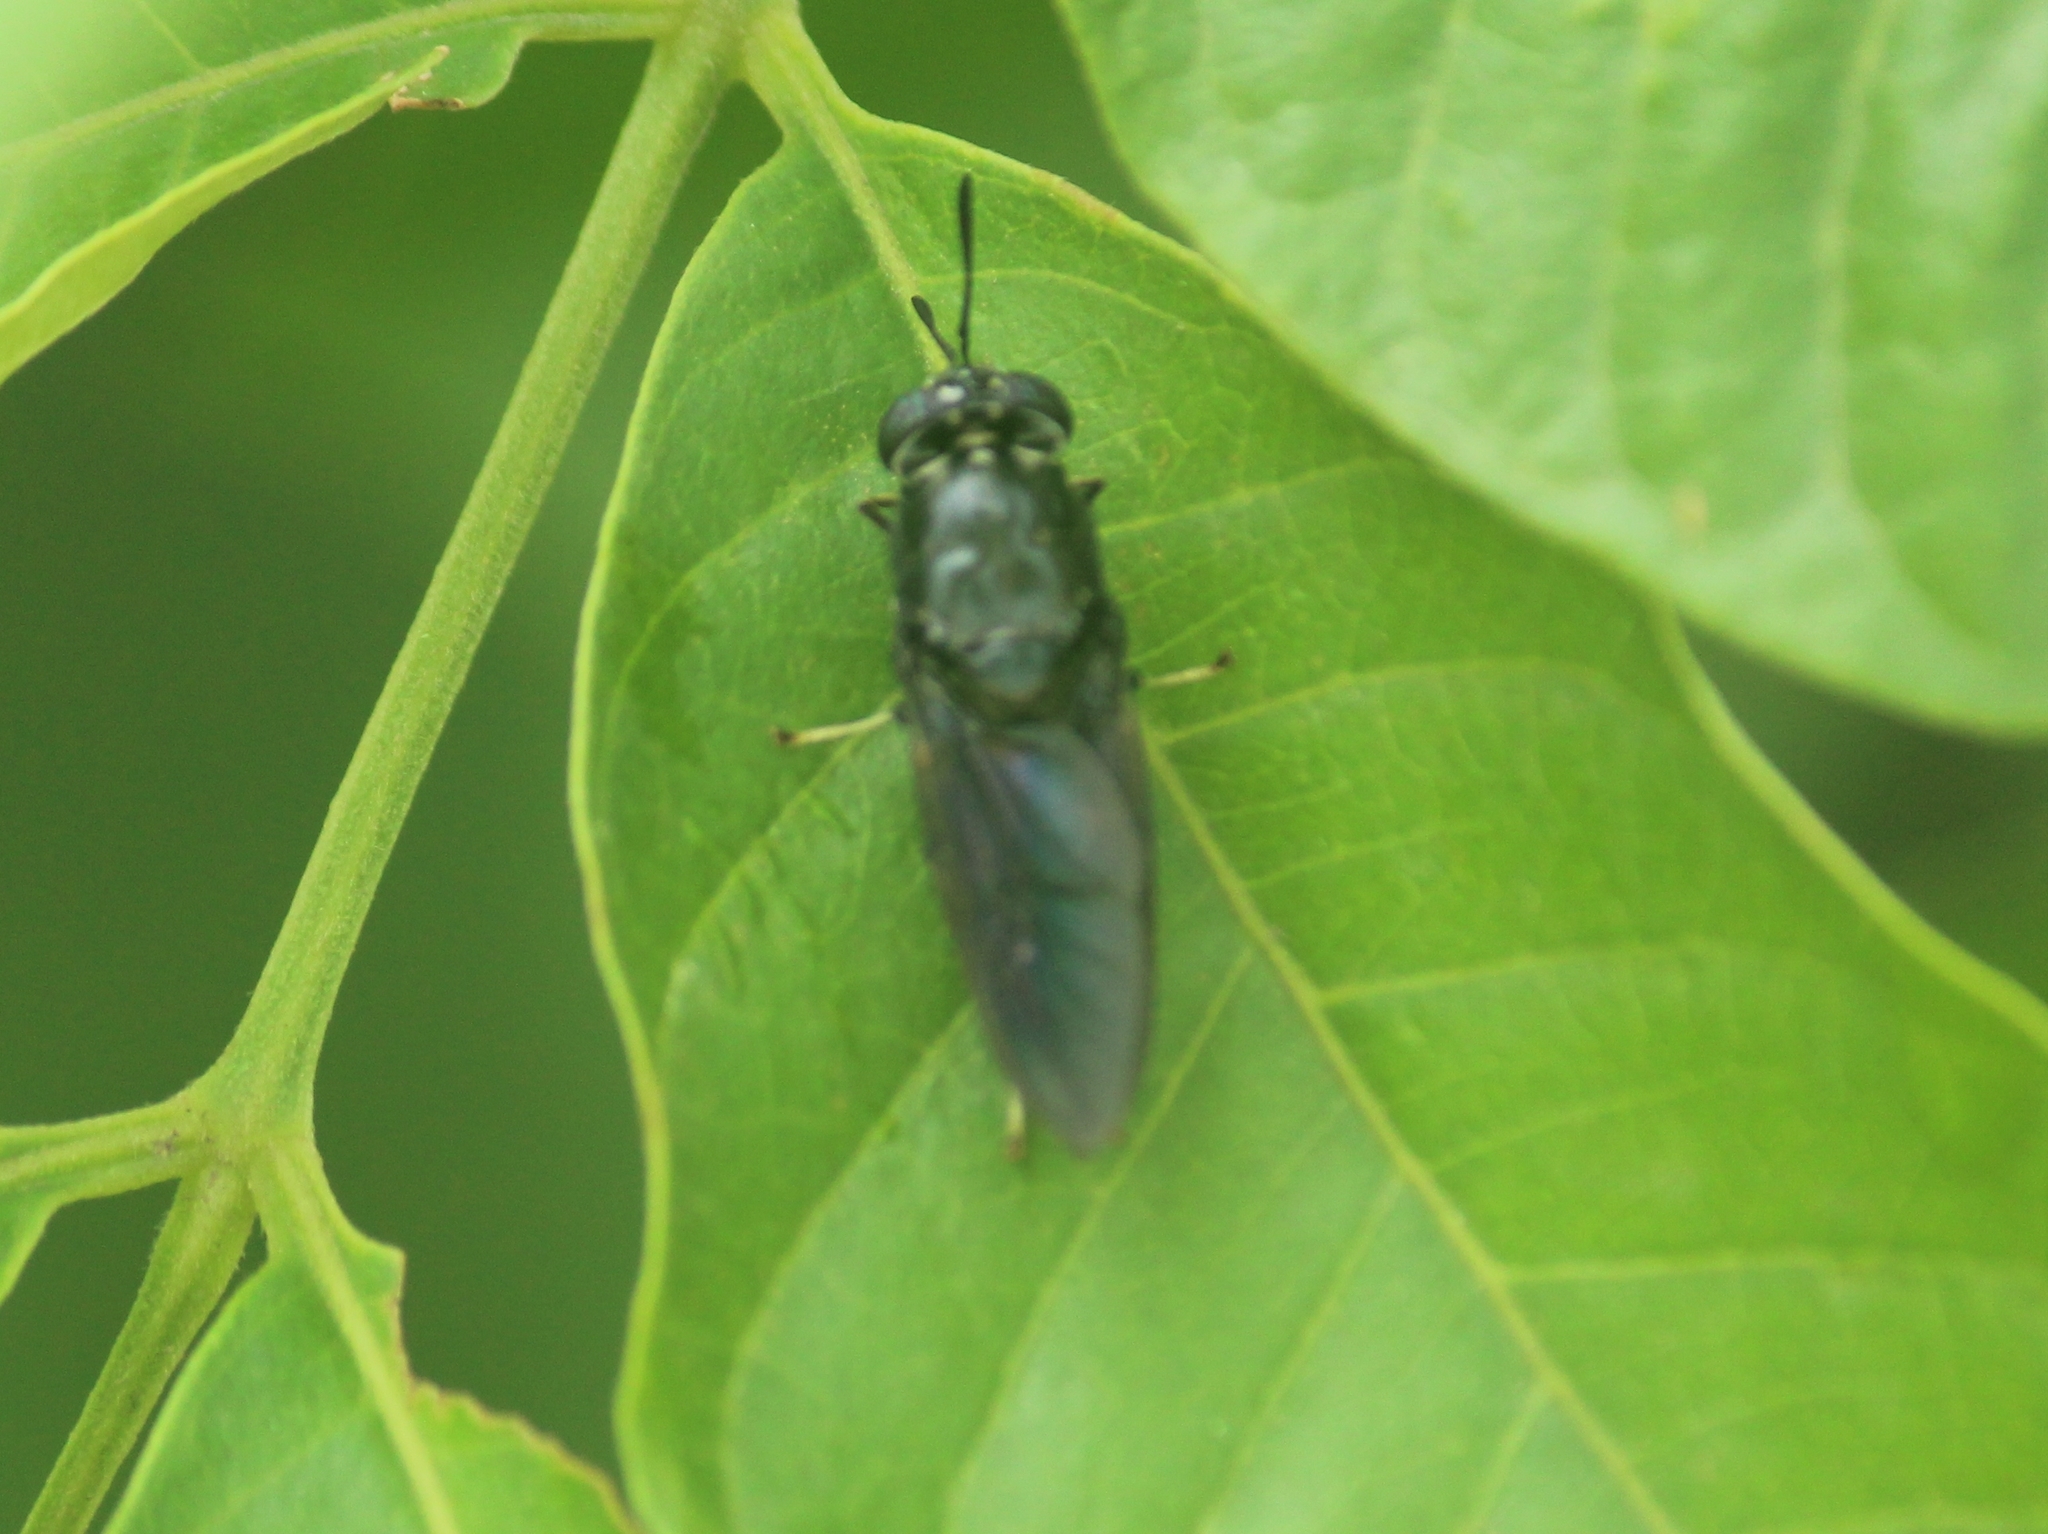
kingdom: Animalia
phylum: Arthropoda
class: Insecta
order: Diptera
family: Stratiomyidae
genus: Hermetia
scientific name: Hermetia illucens
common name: Black soldier fly
